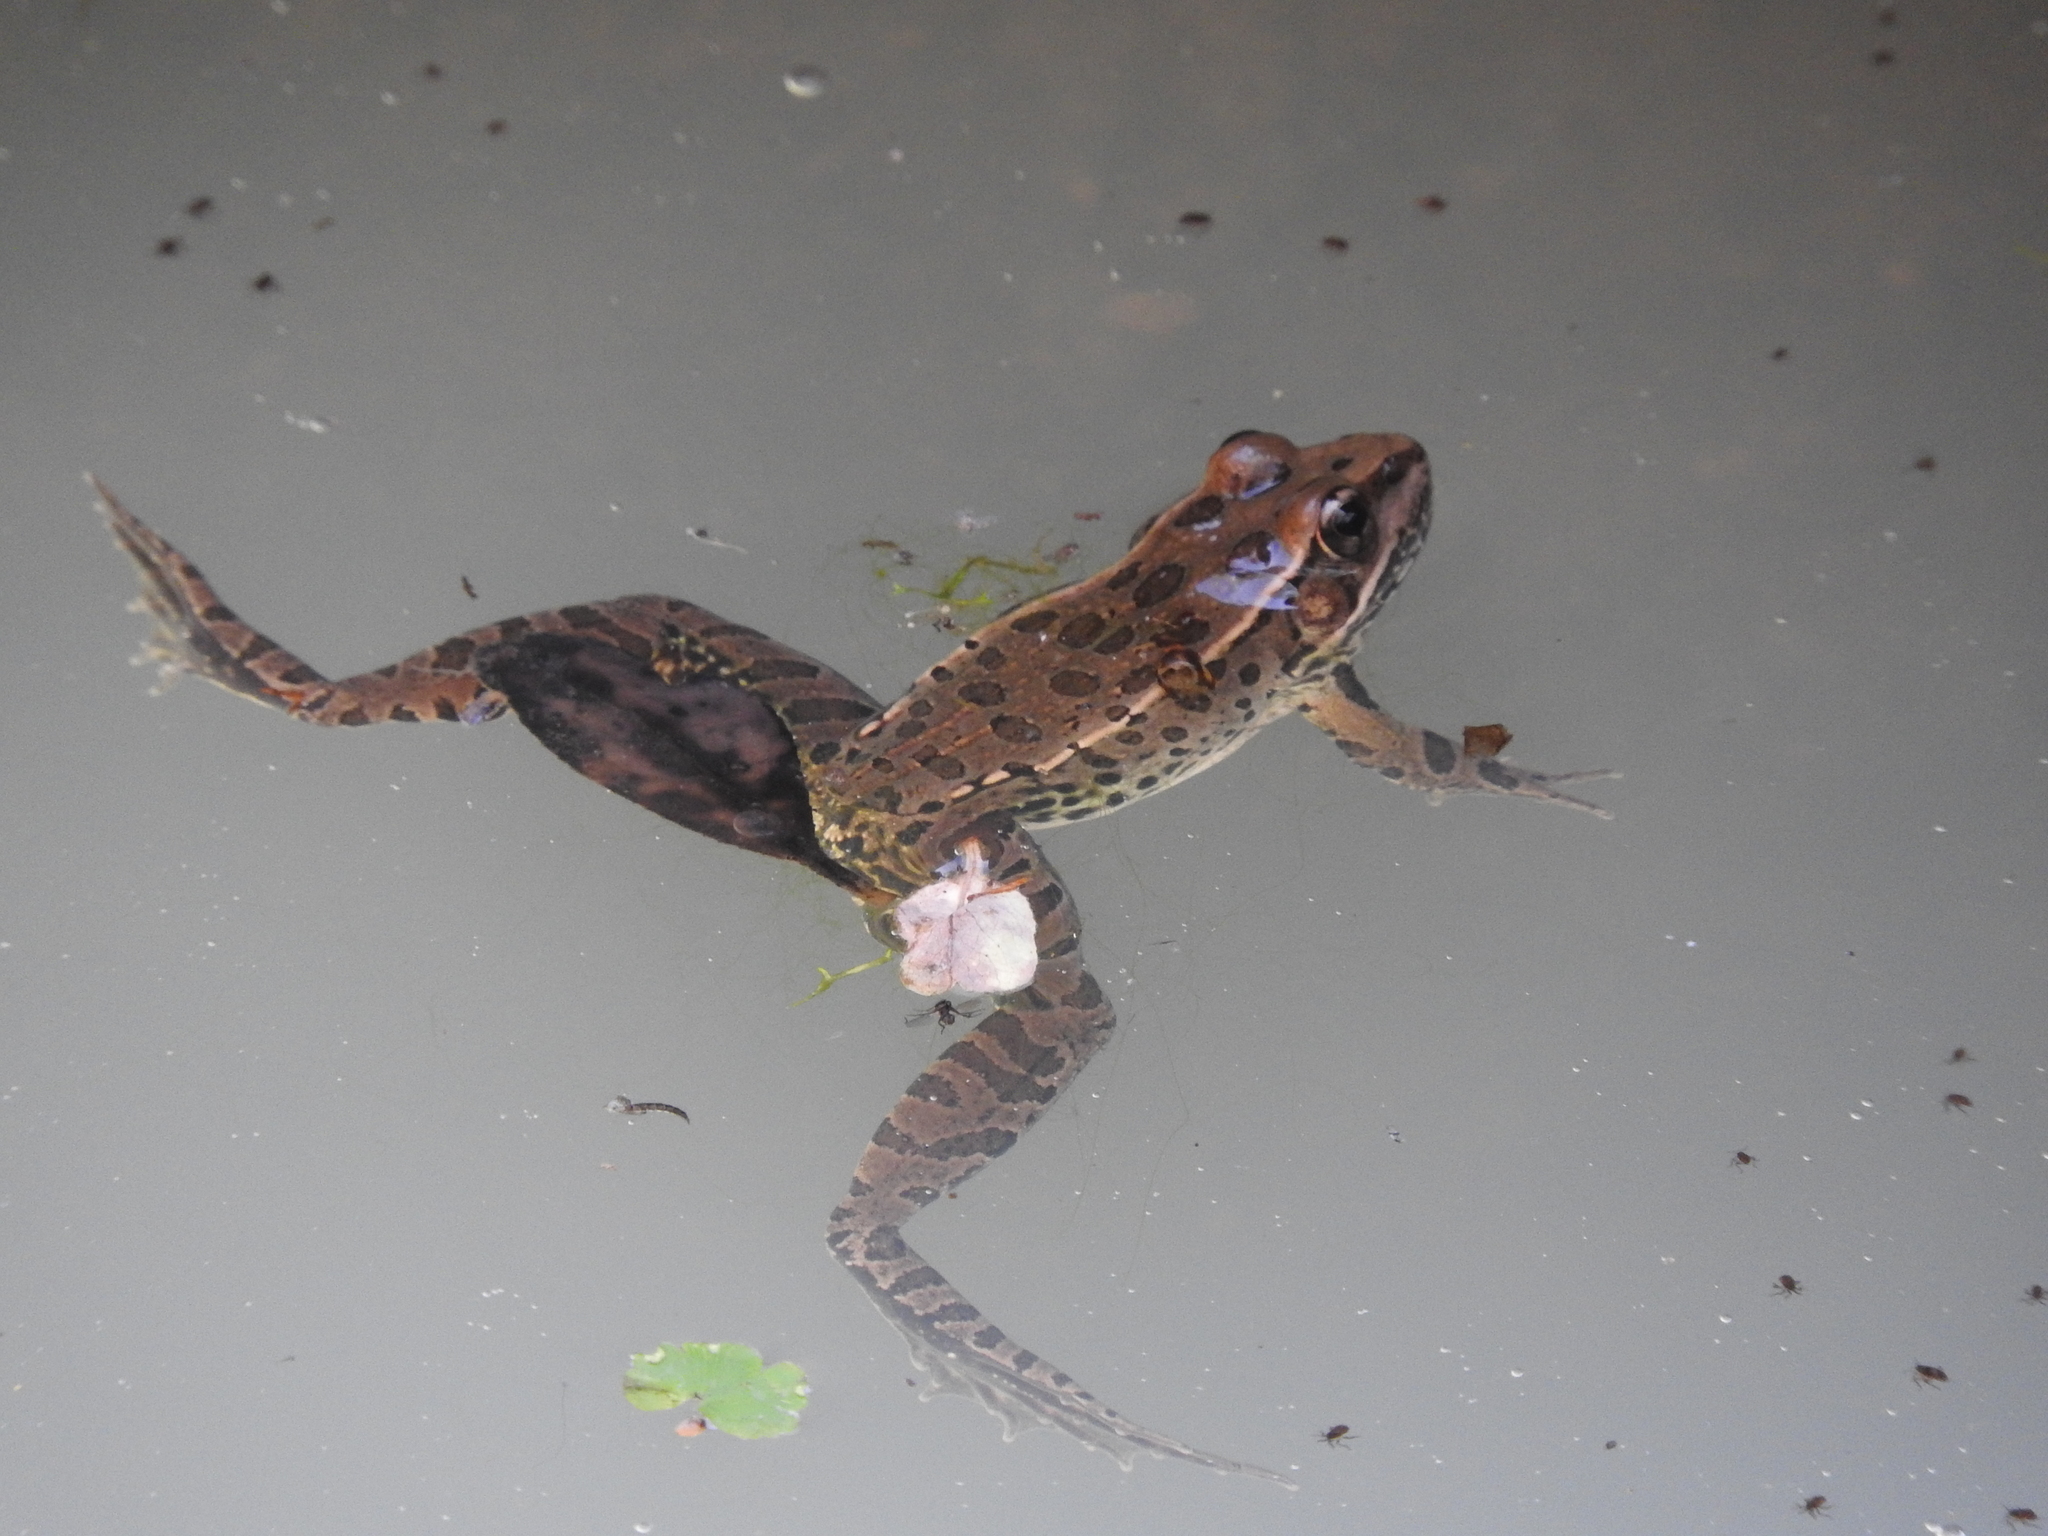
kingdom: Animalia
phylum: Chordata
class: Amphibia
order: Anura
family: Ranidae
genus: Lithobates
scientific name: Lithobates neovolcanicus
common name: Transverse volcanic leopard frog
